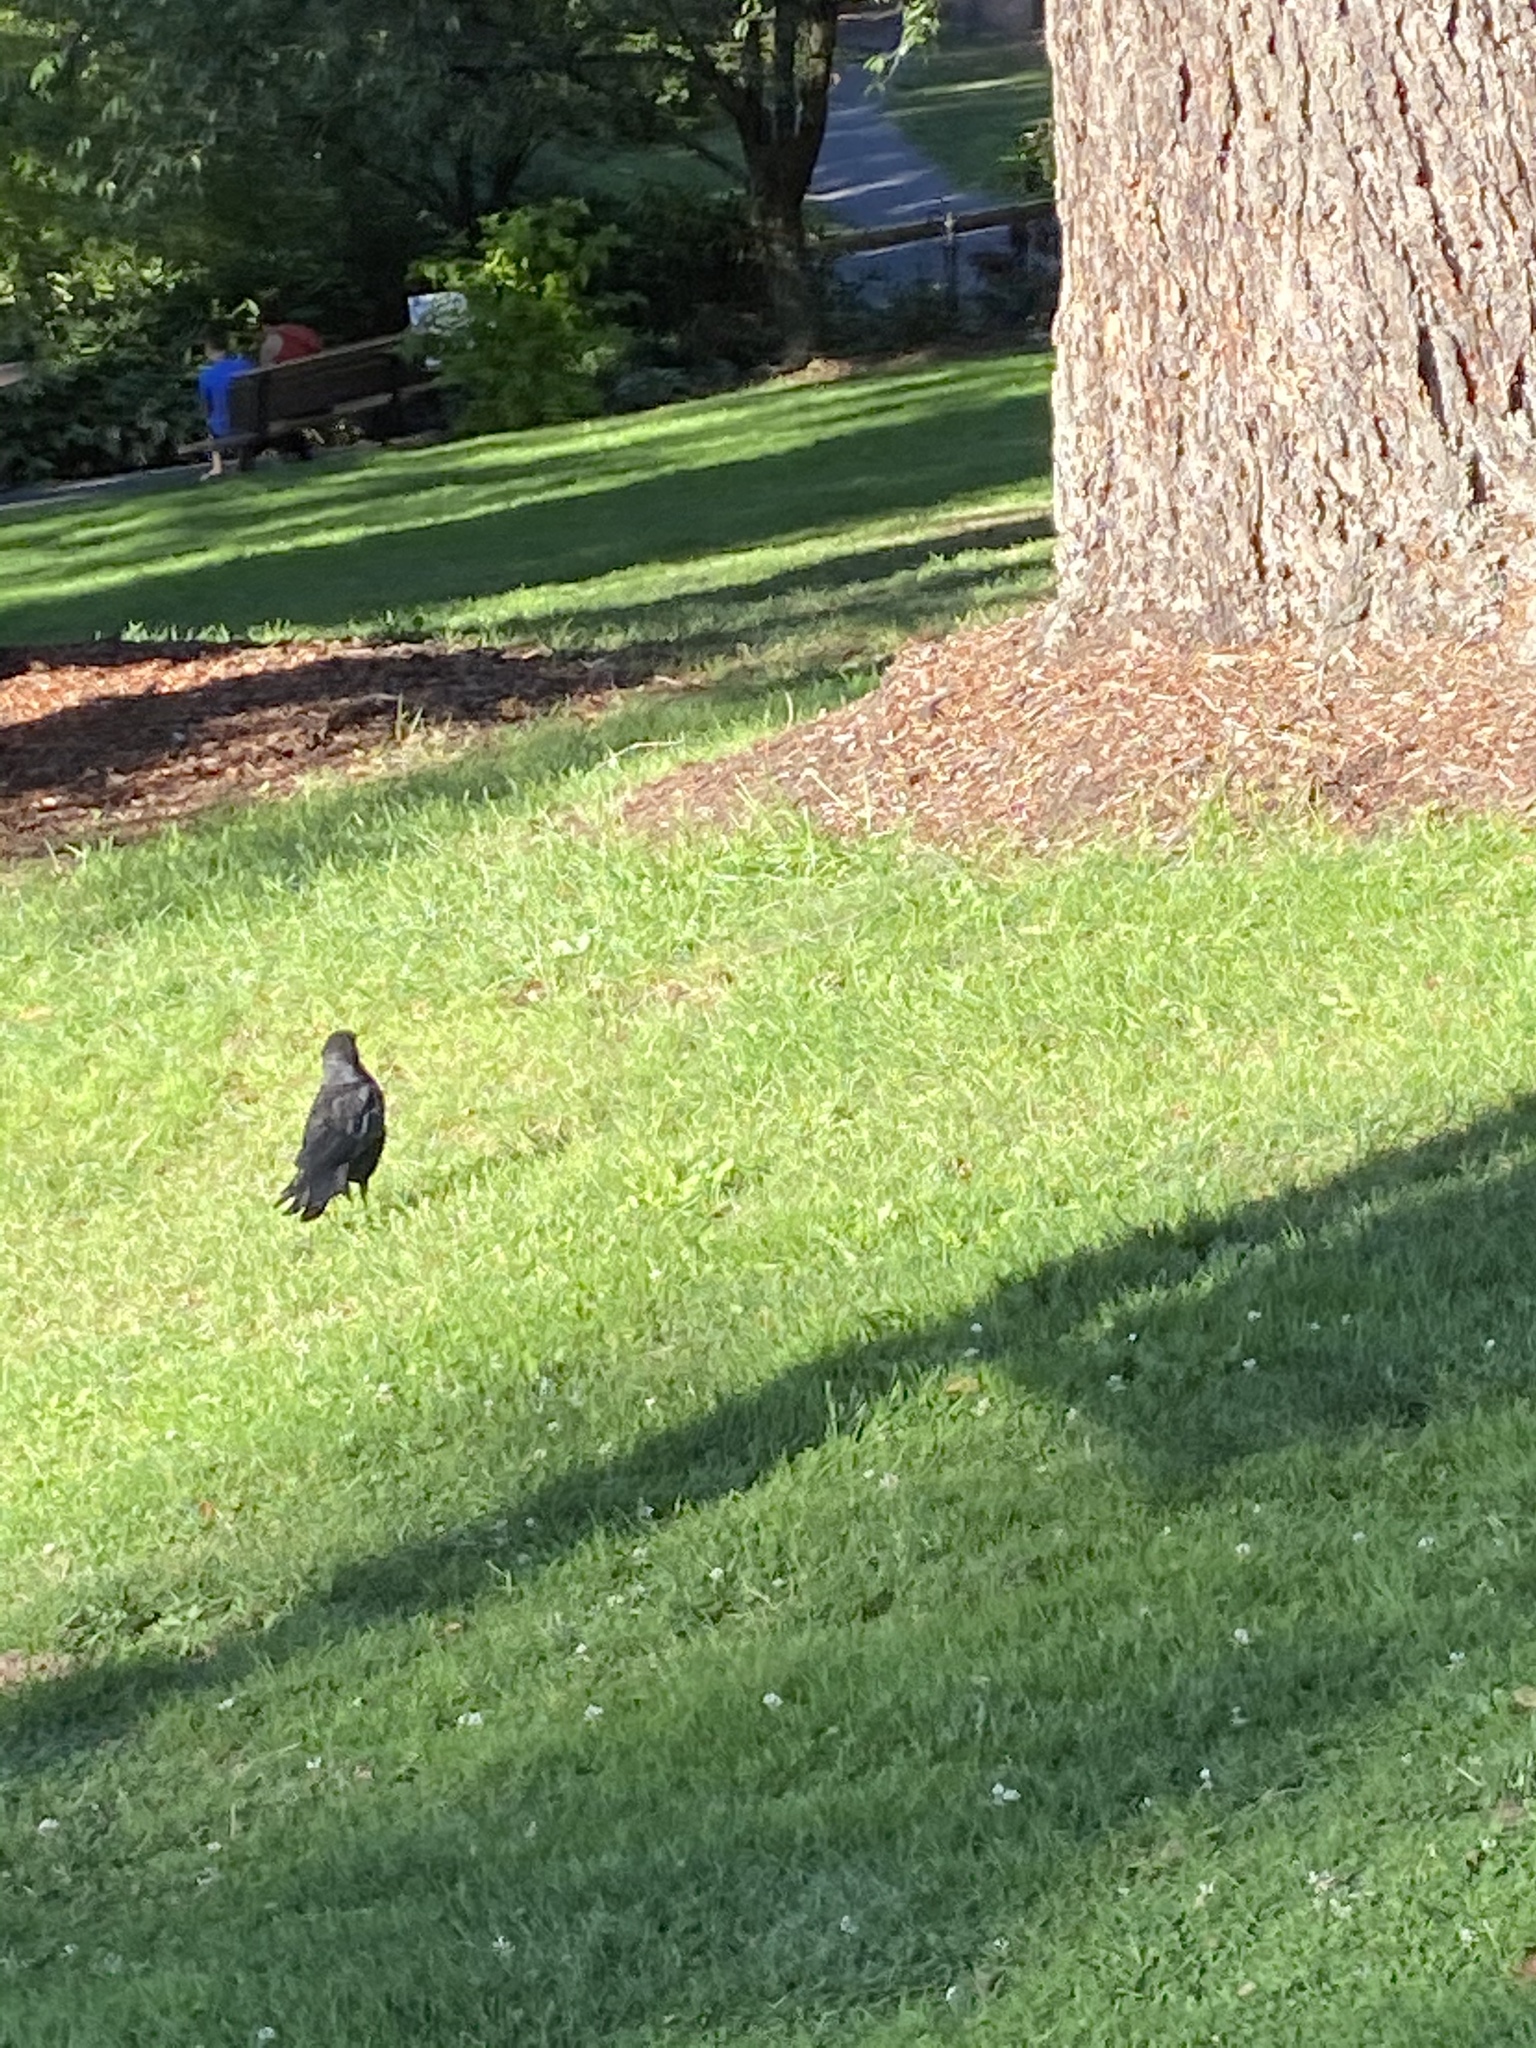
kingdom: Animalia
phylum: Chordata
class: Aves
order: Passeriformes
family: Corvidae
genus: Corvus
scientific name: Corvus brachyrhynchos
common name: American crow
